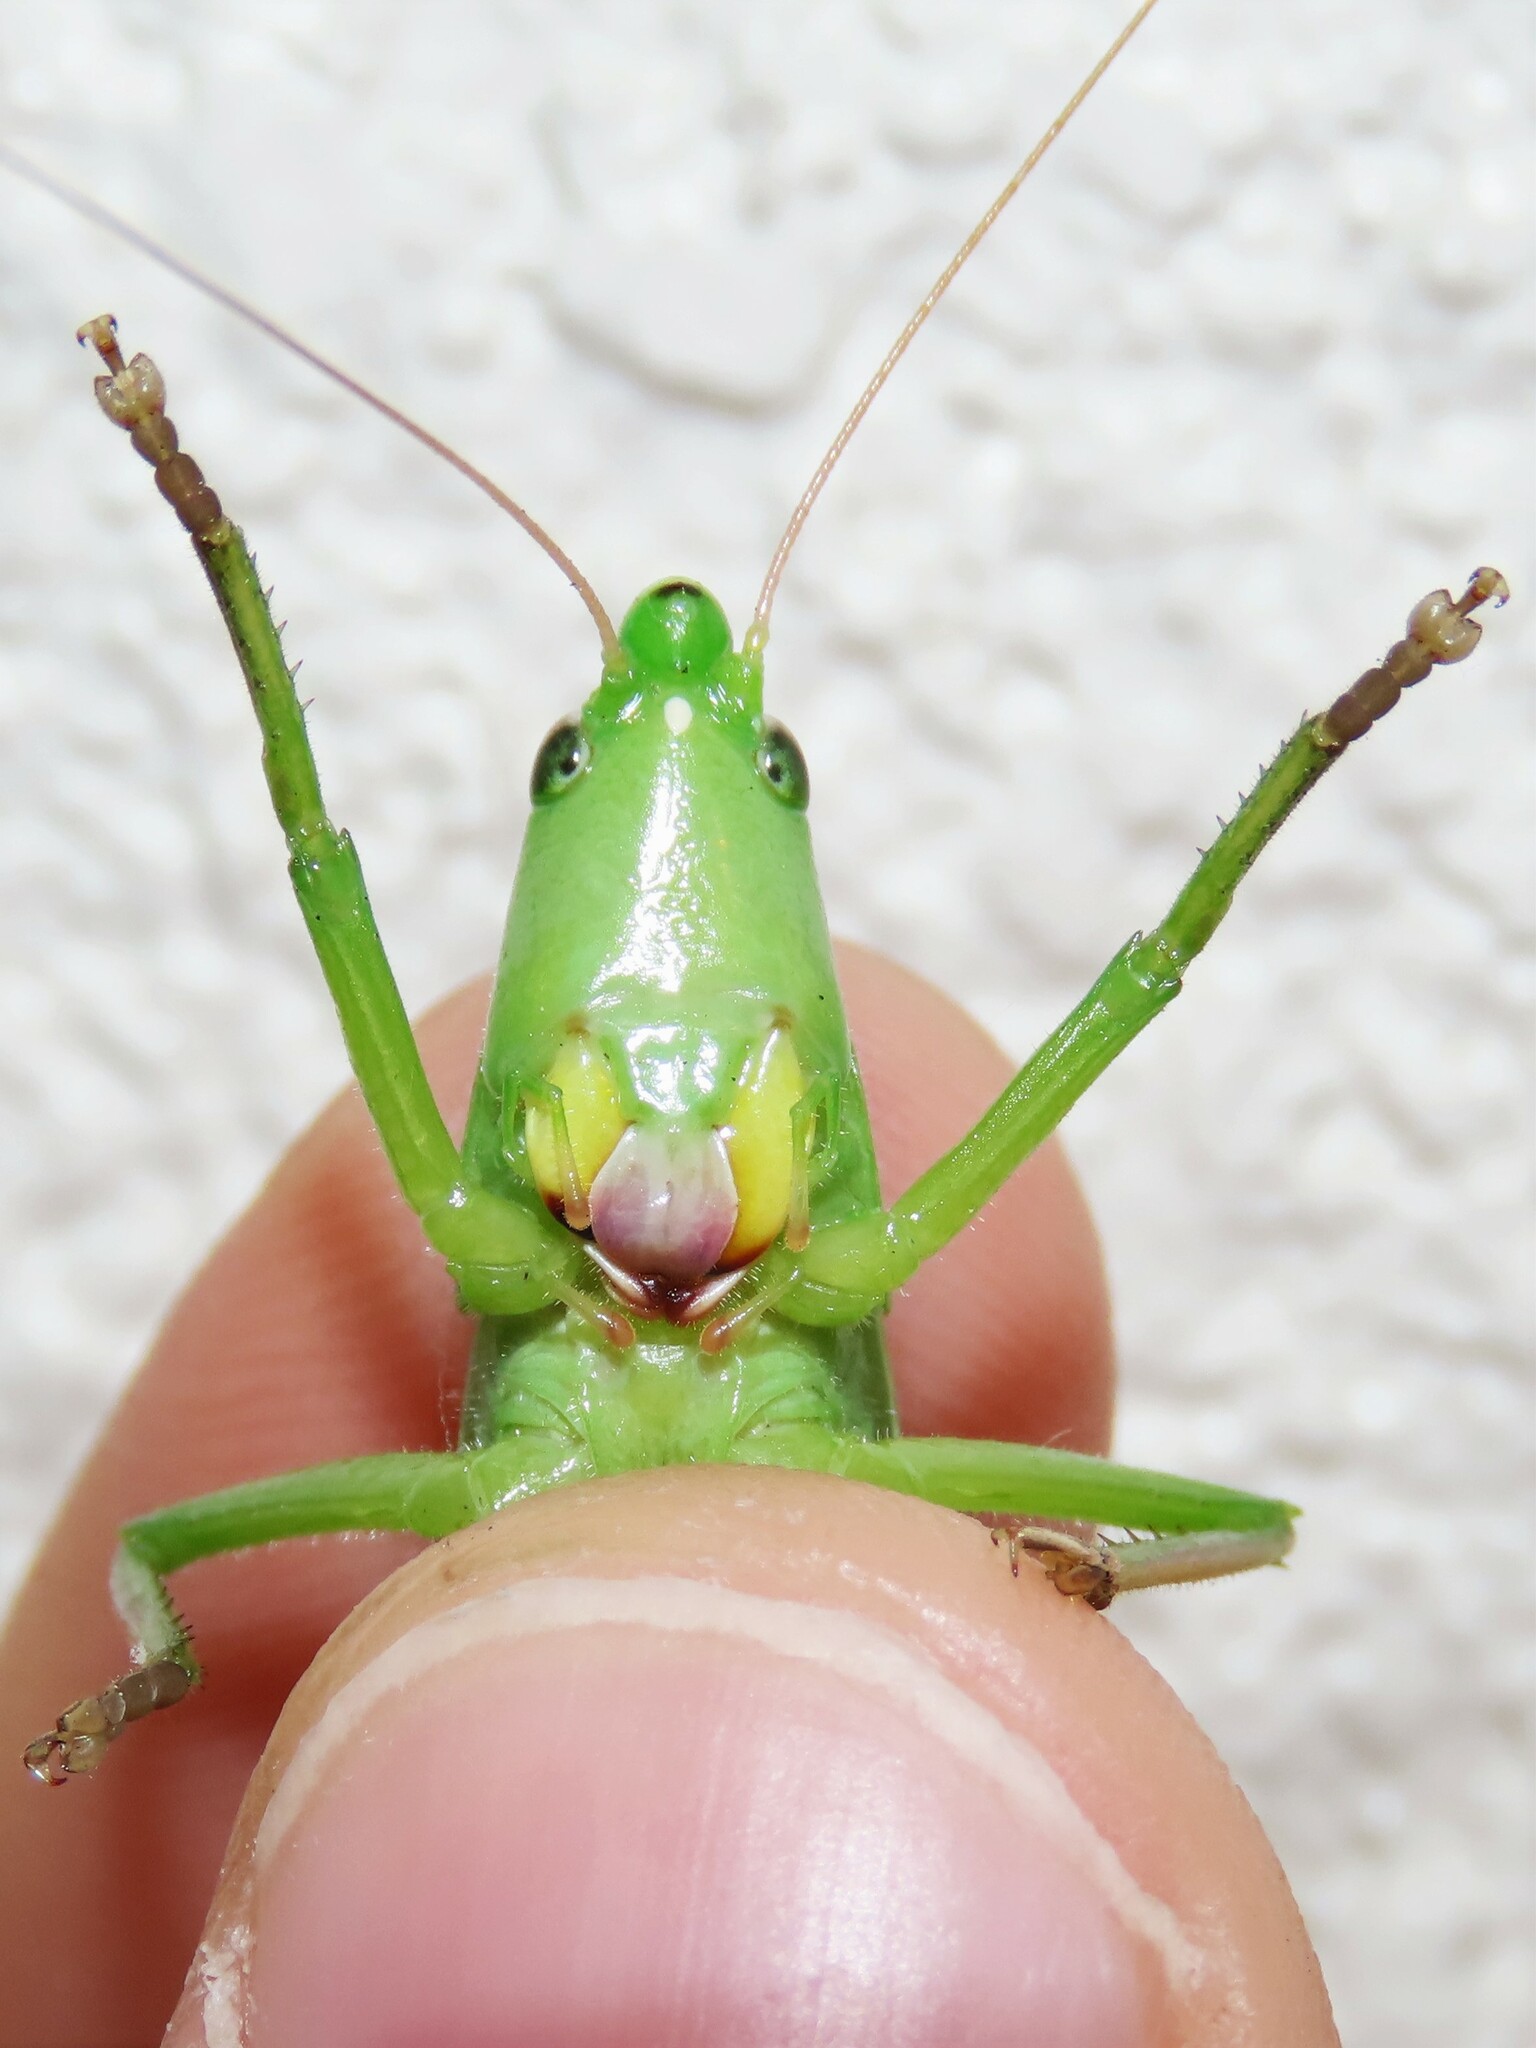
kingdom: Animalia
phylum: Arthropoda
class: Insecta
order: Orthoptera
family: Tettigoniidae
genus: Neoconocephalus
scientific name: Neoconocephalus triops
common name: Broad-tipped conehead
